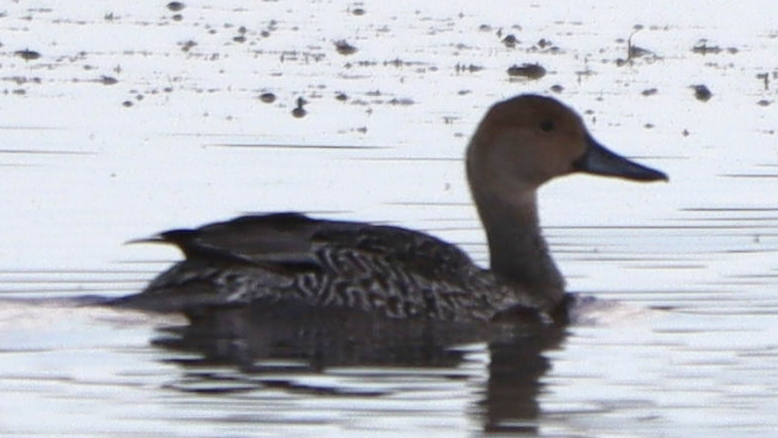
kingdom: Animalia
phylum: Chordata
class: Aves
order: Anseriformes
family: Anatidae
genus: Anas
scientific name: Anas acuta
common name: Northern pintail
